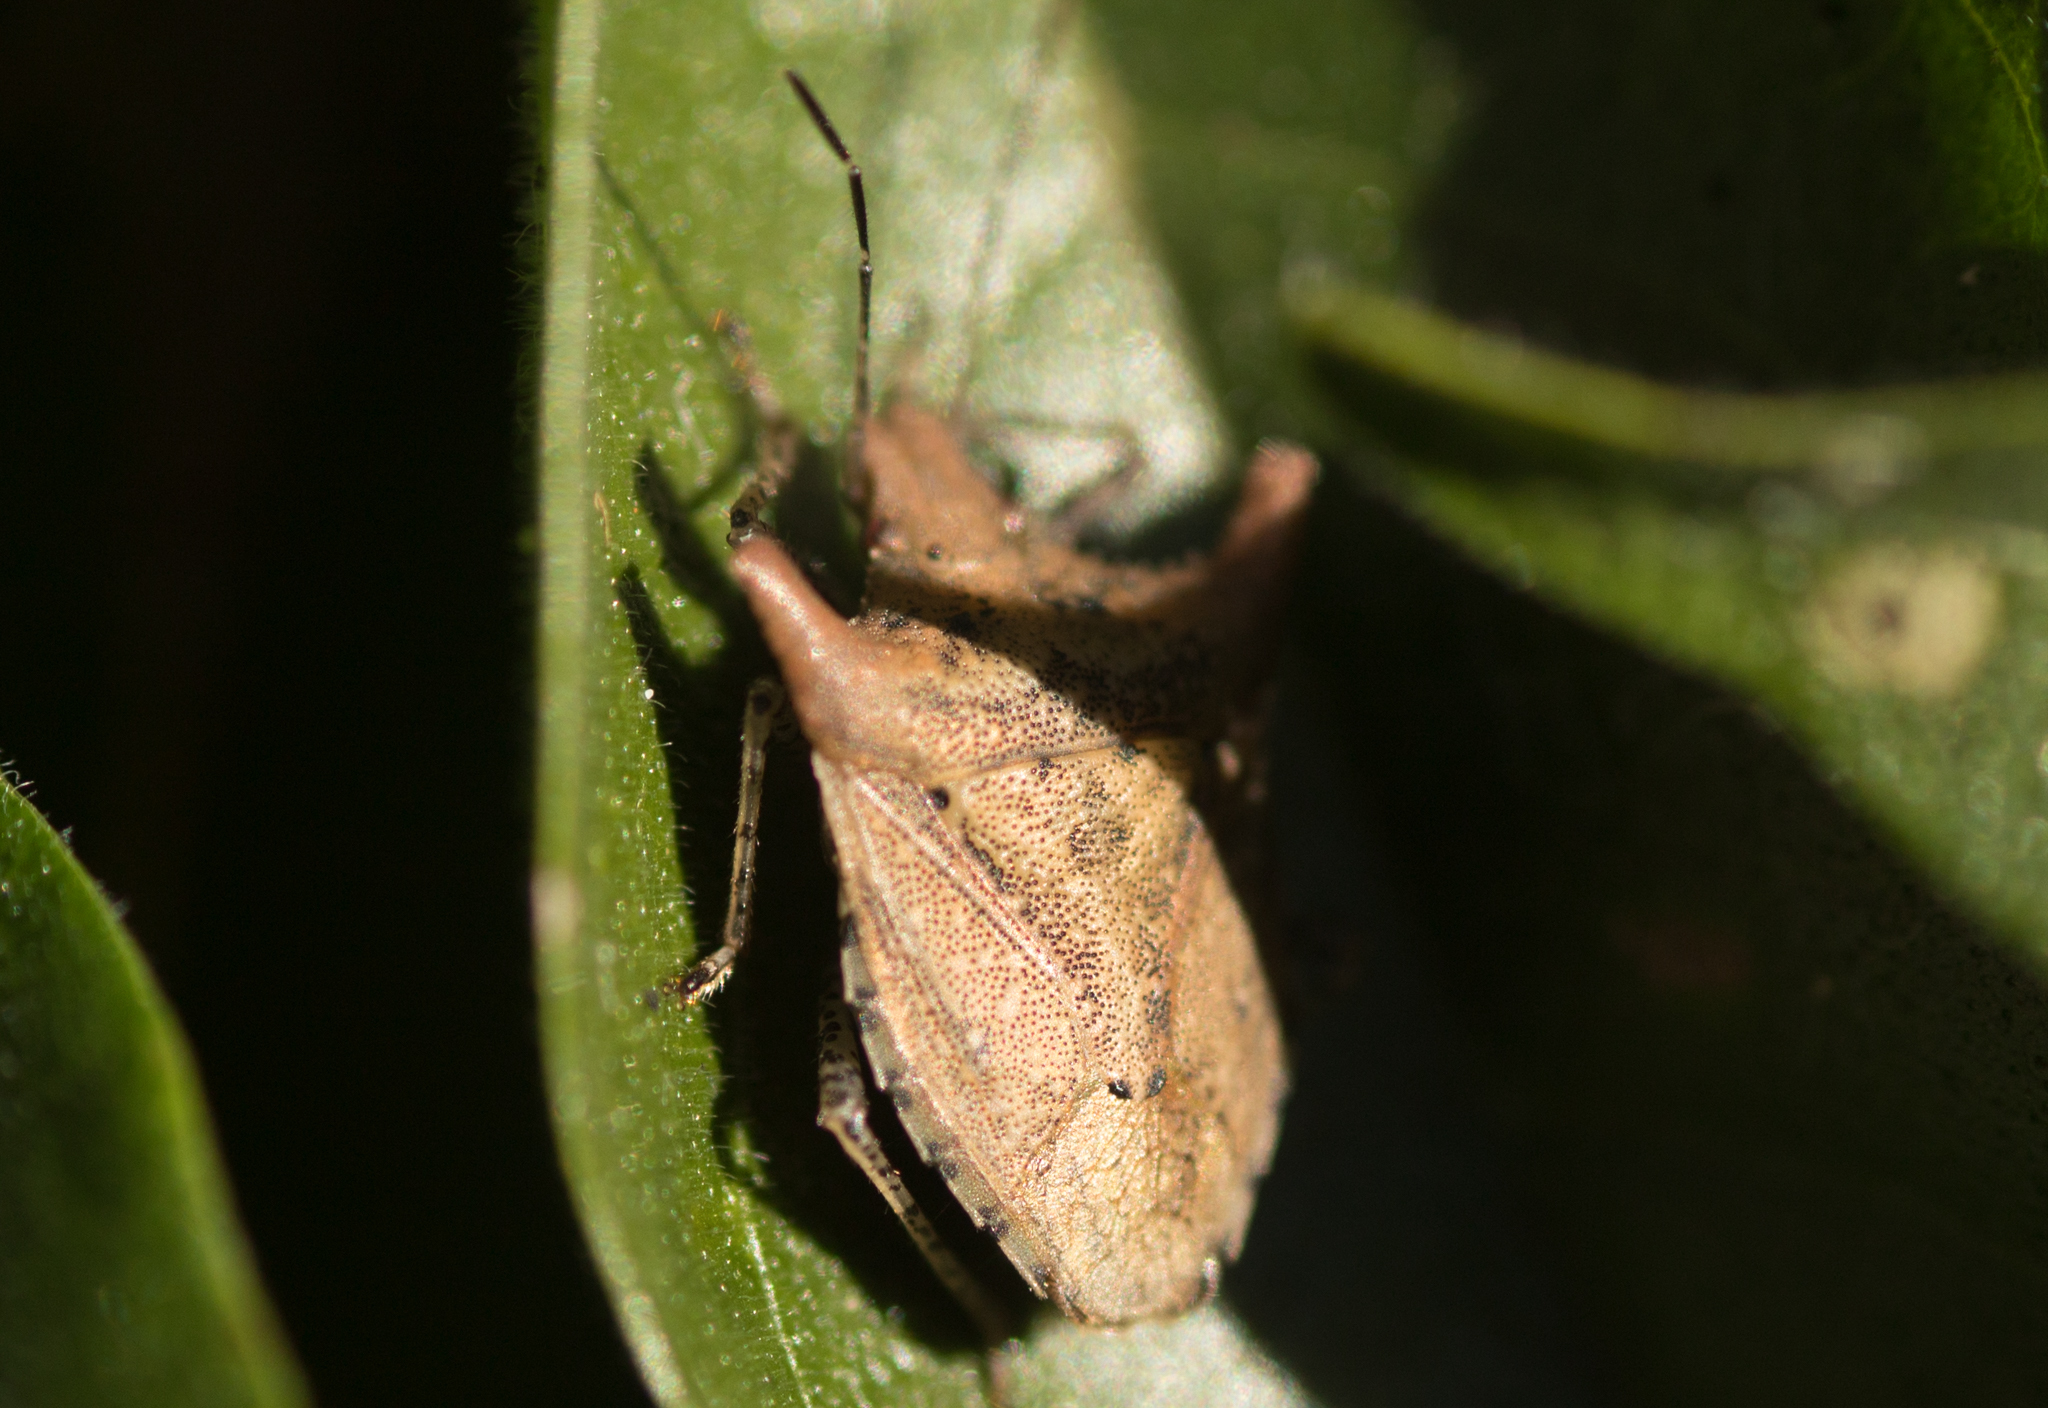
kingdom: Animalia
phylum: Arthropoda
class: Insecta
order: Hemiptera
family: Pentatomidae
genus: Euschistus
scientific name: Euschistus cornutus
